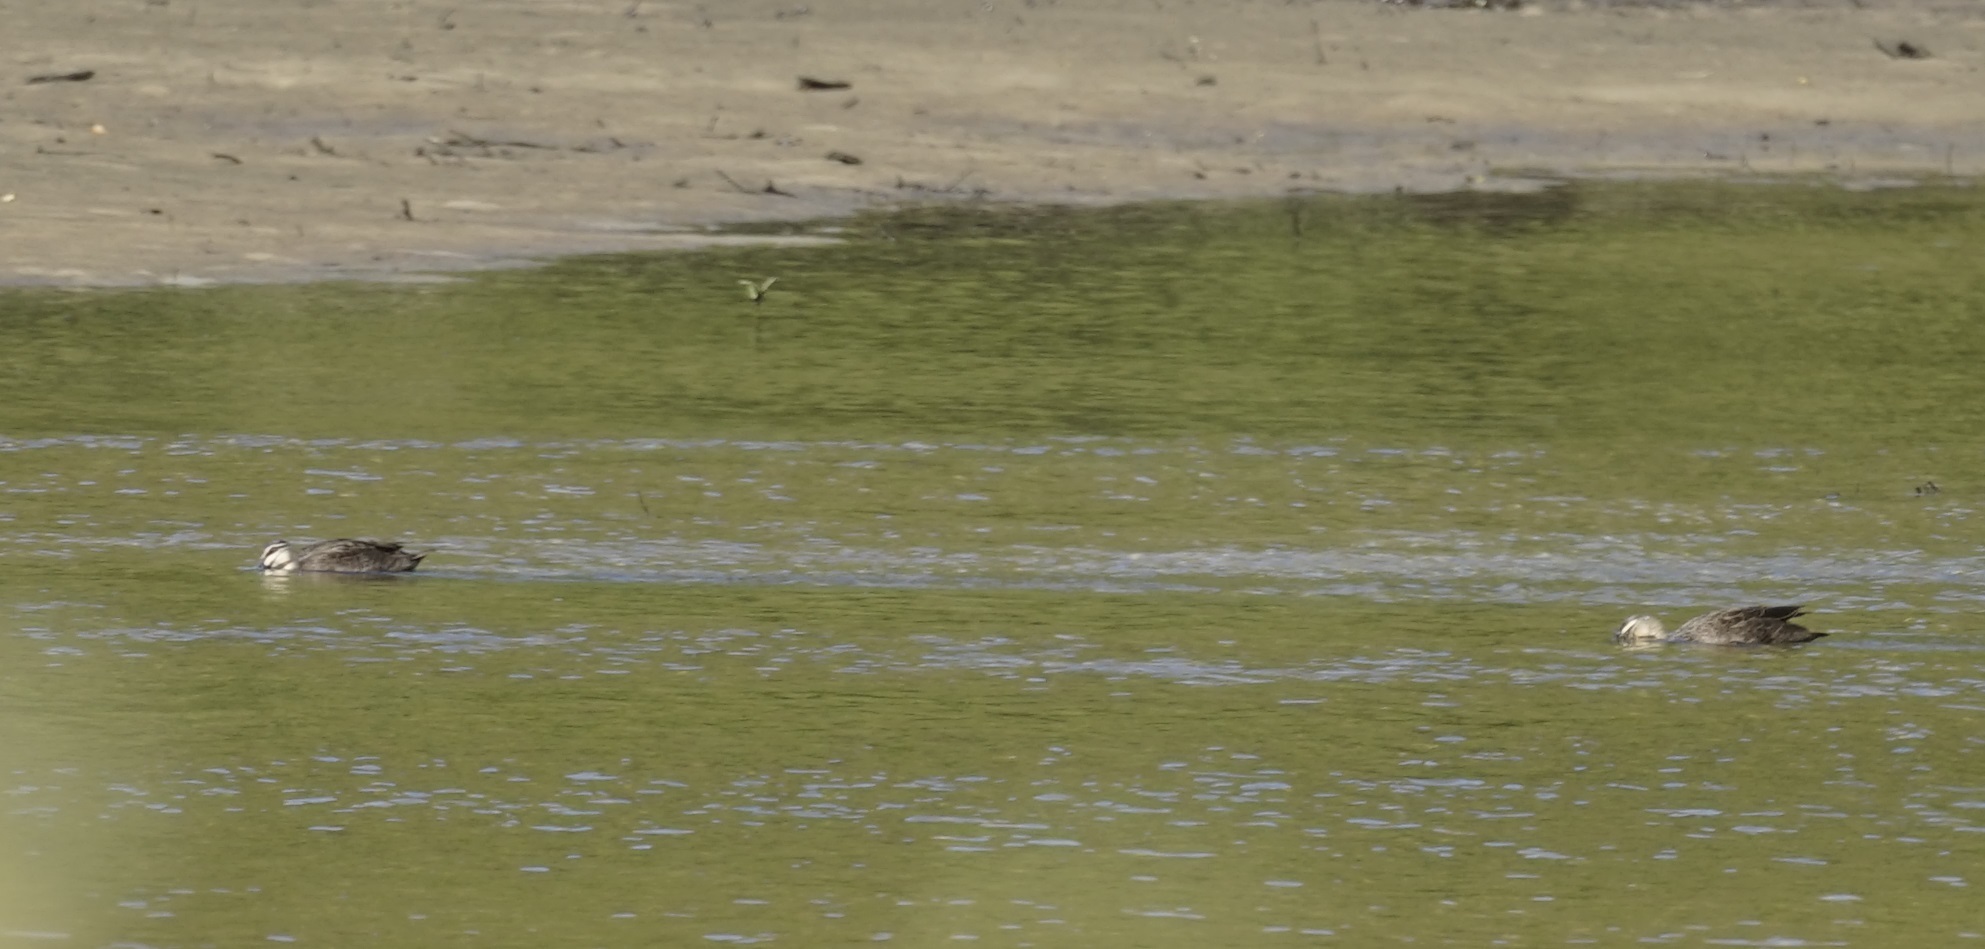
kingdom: Animalia
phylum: Chordata
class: Aves
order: Anseriformes
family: Anatidae
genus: Anas
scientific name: Anas superciliosa
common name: Pacific black duck
